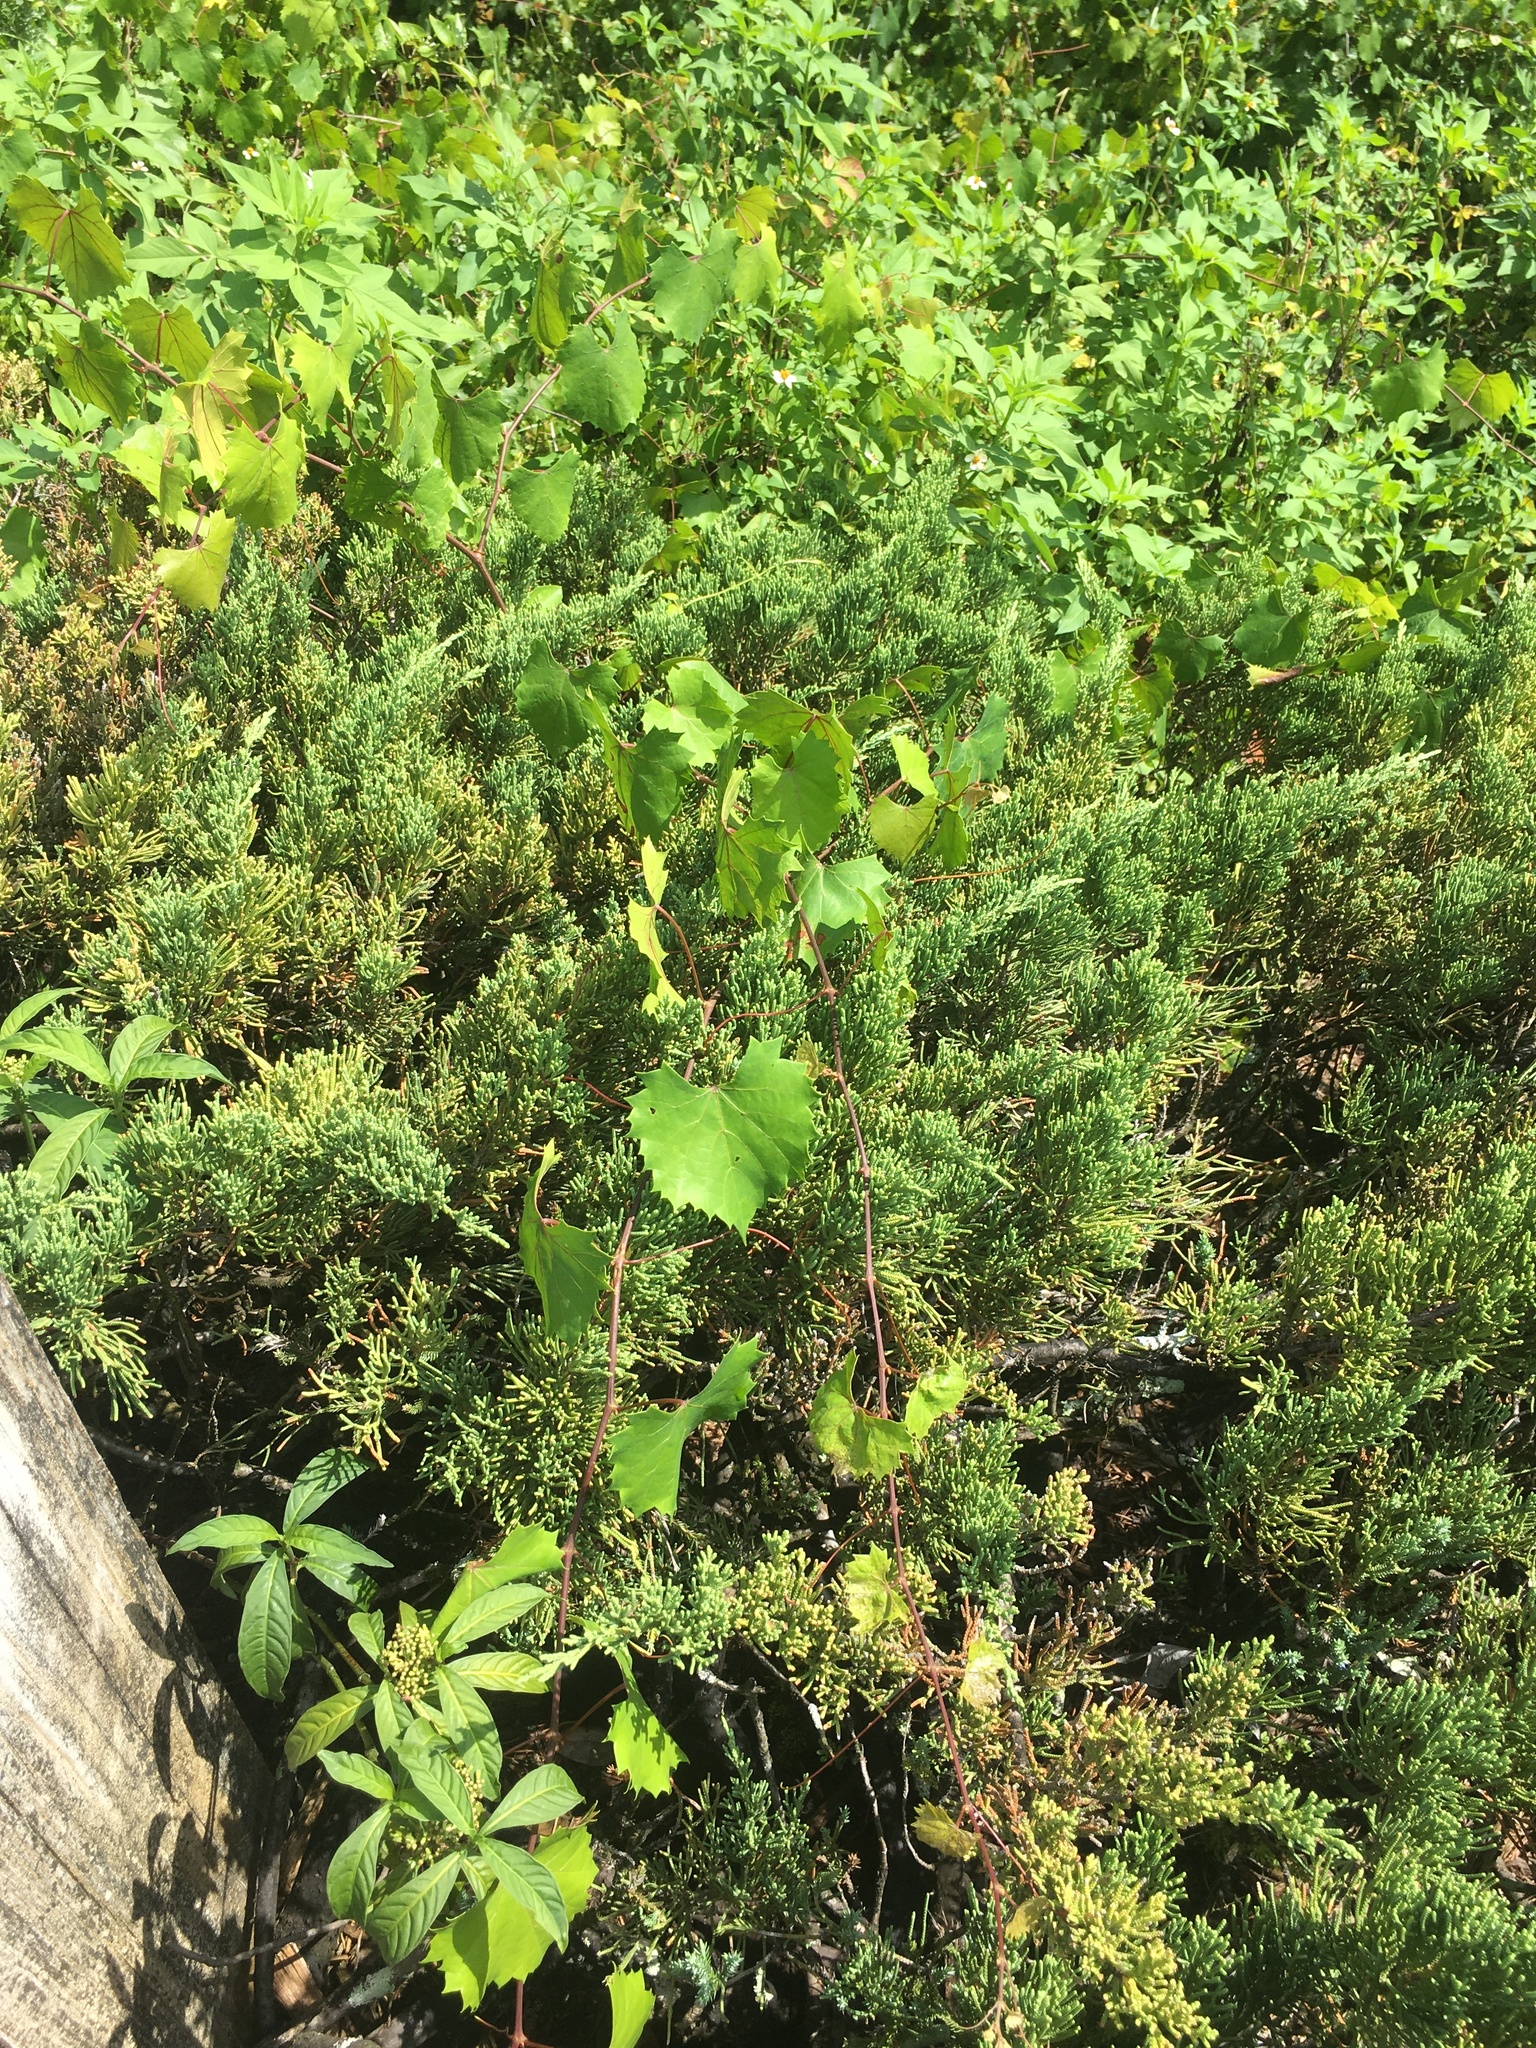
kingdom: Plantae
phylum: Tracheophyta
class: Magnoliopsida
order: Vitales
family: Vitaceae
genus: Vitis
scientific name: Vitis rotundifolia
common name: Muscadine grape
